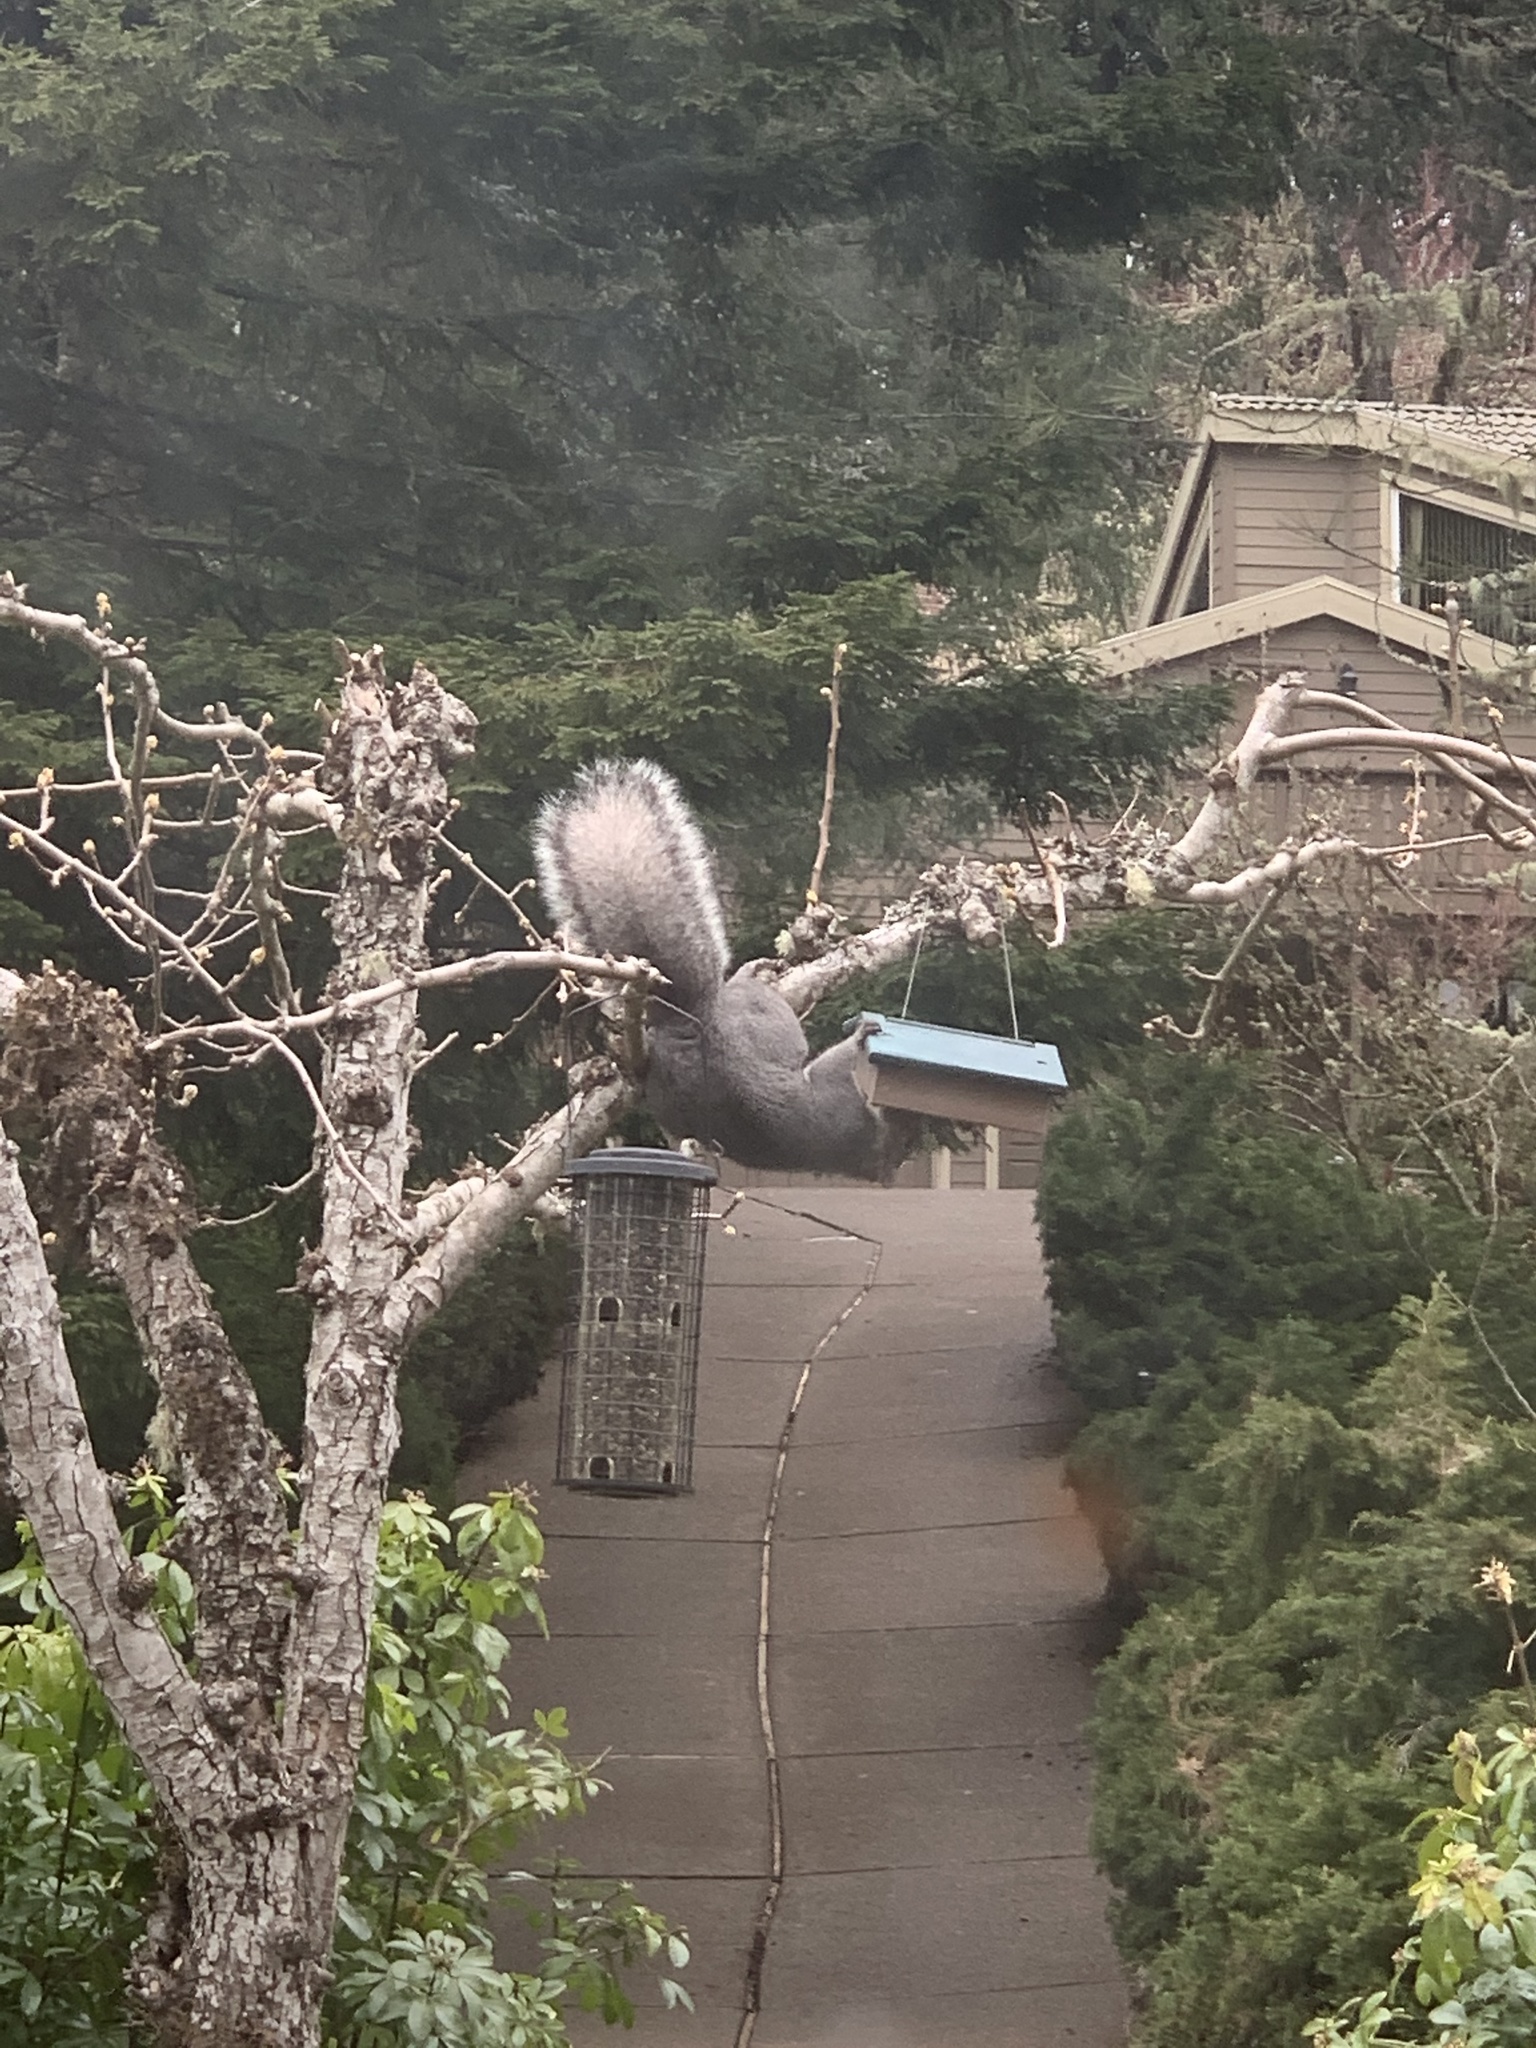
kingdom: Animalia
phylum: Chordata
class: Mammalia
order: Rodentia
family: Sciuridae
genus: Sciurus
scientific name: Sciurus griseus
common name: Western gray squirrel
